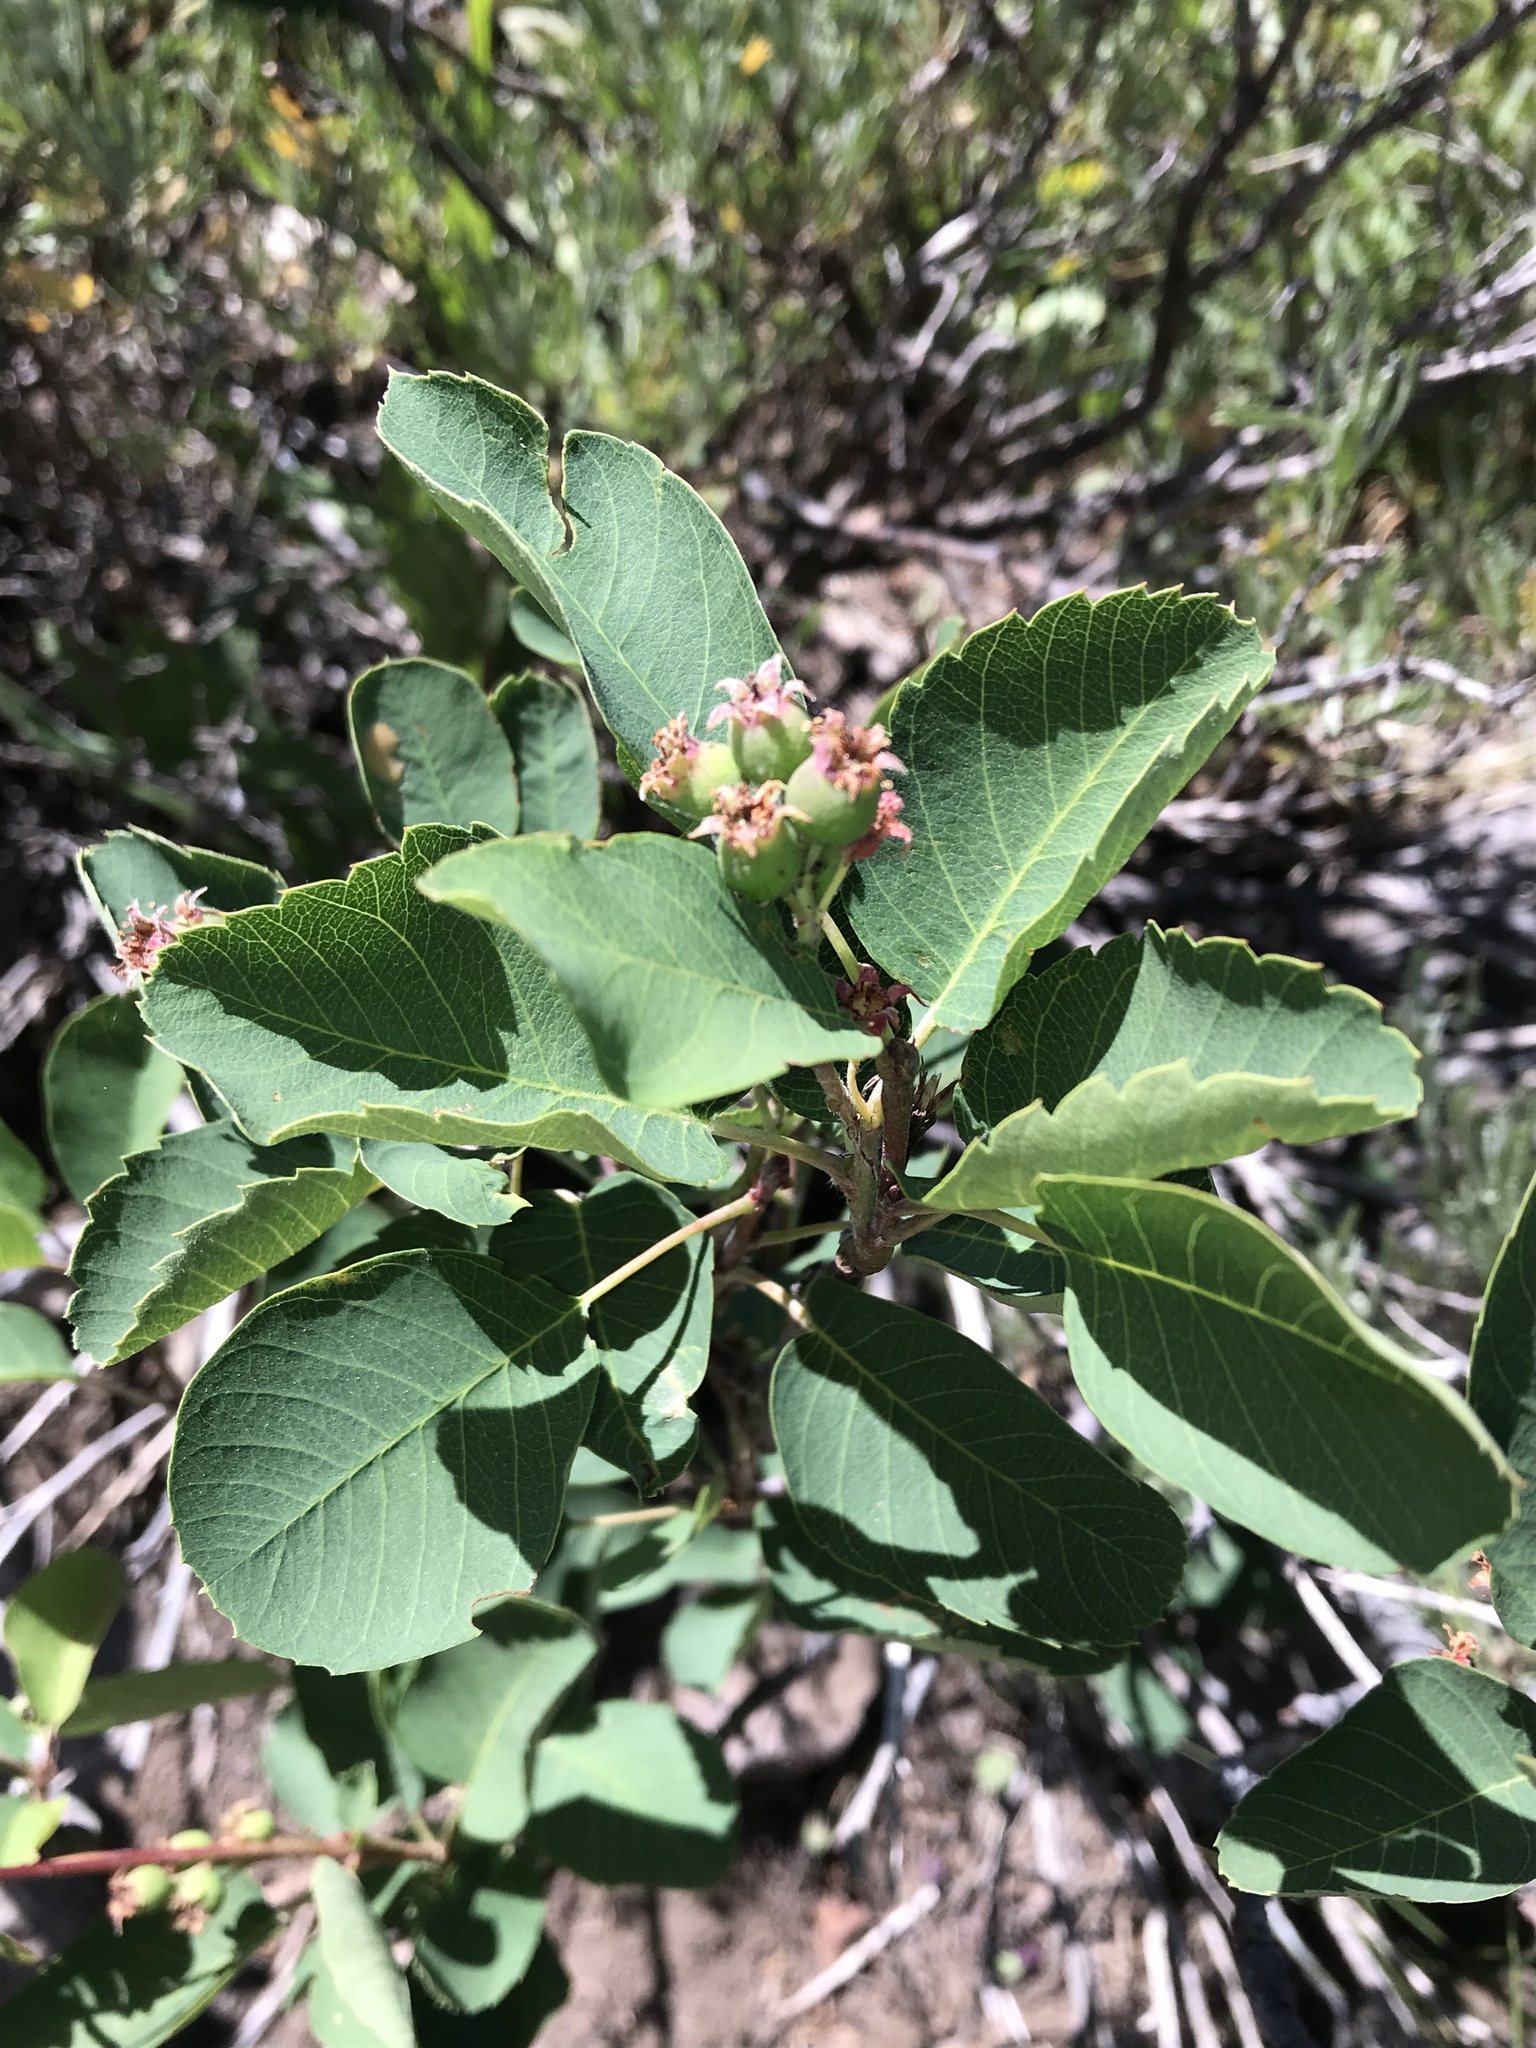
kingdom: Plantae
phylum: Tracheophyta
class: Magnoliopsida
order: Rosales
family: Rosaceae
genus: Amelanchier
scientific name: Amelanchier alnifolia
